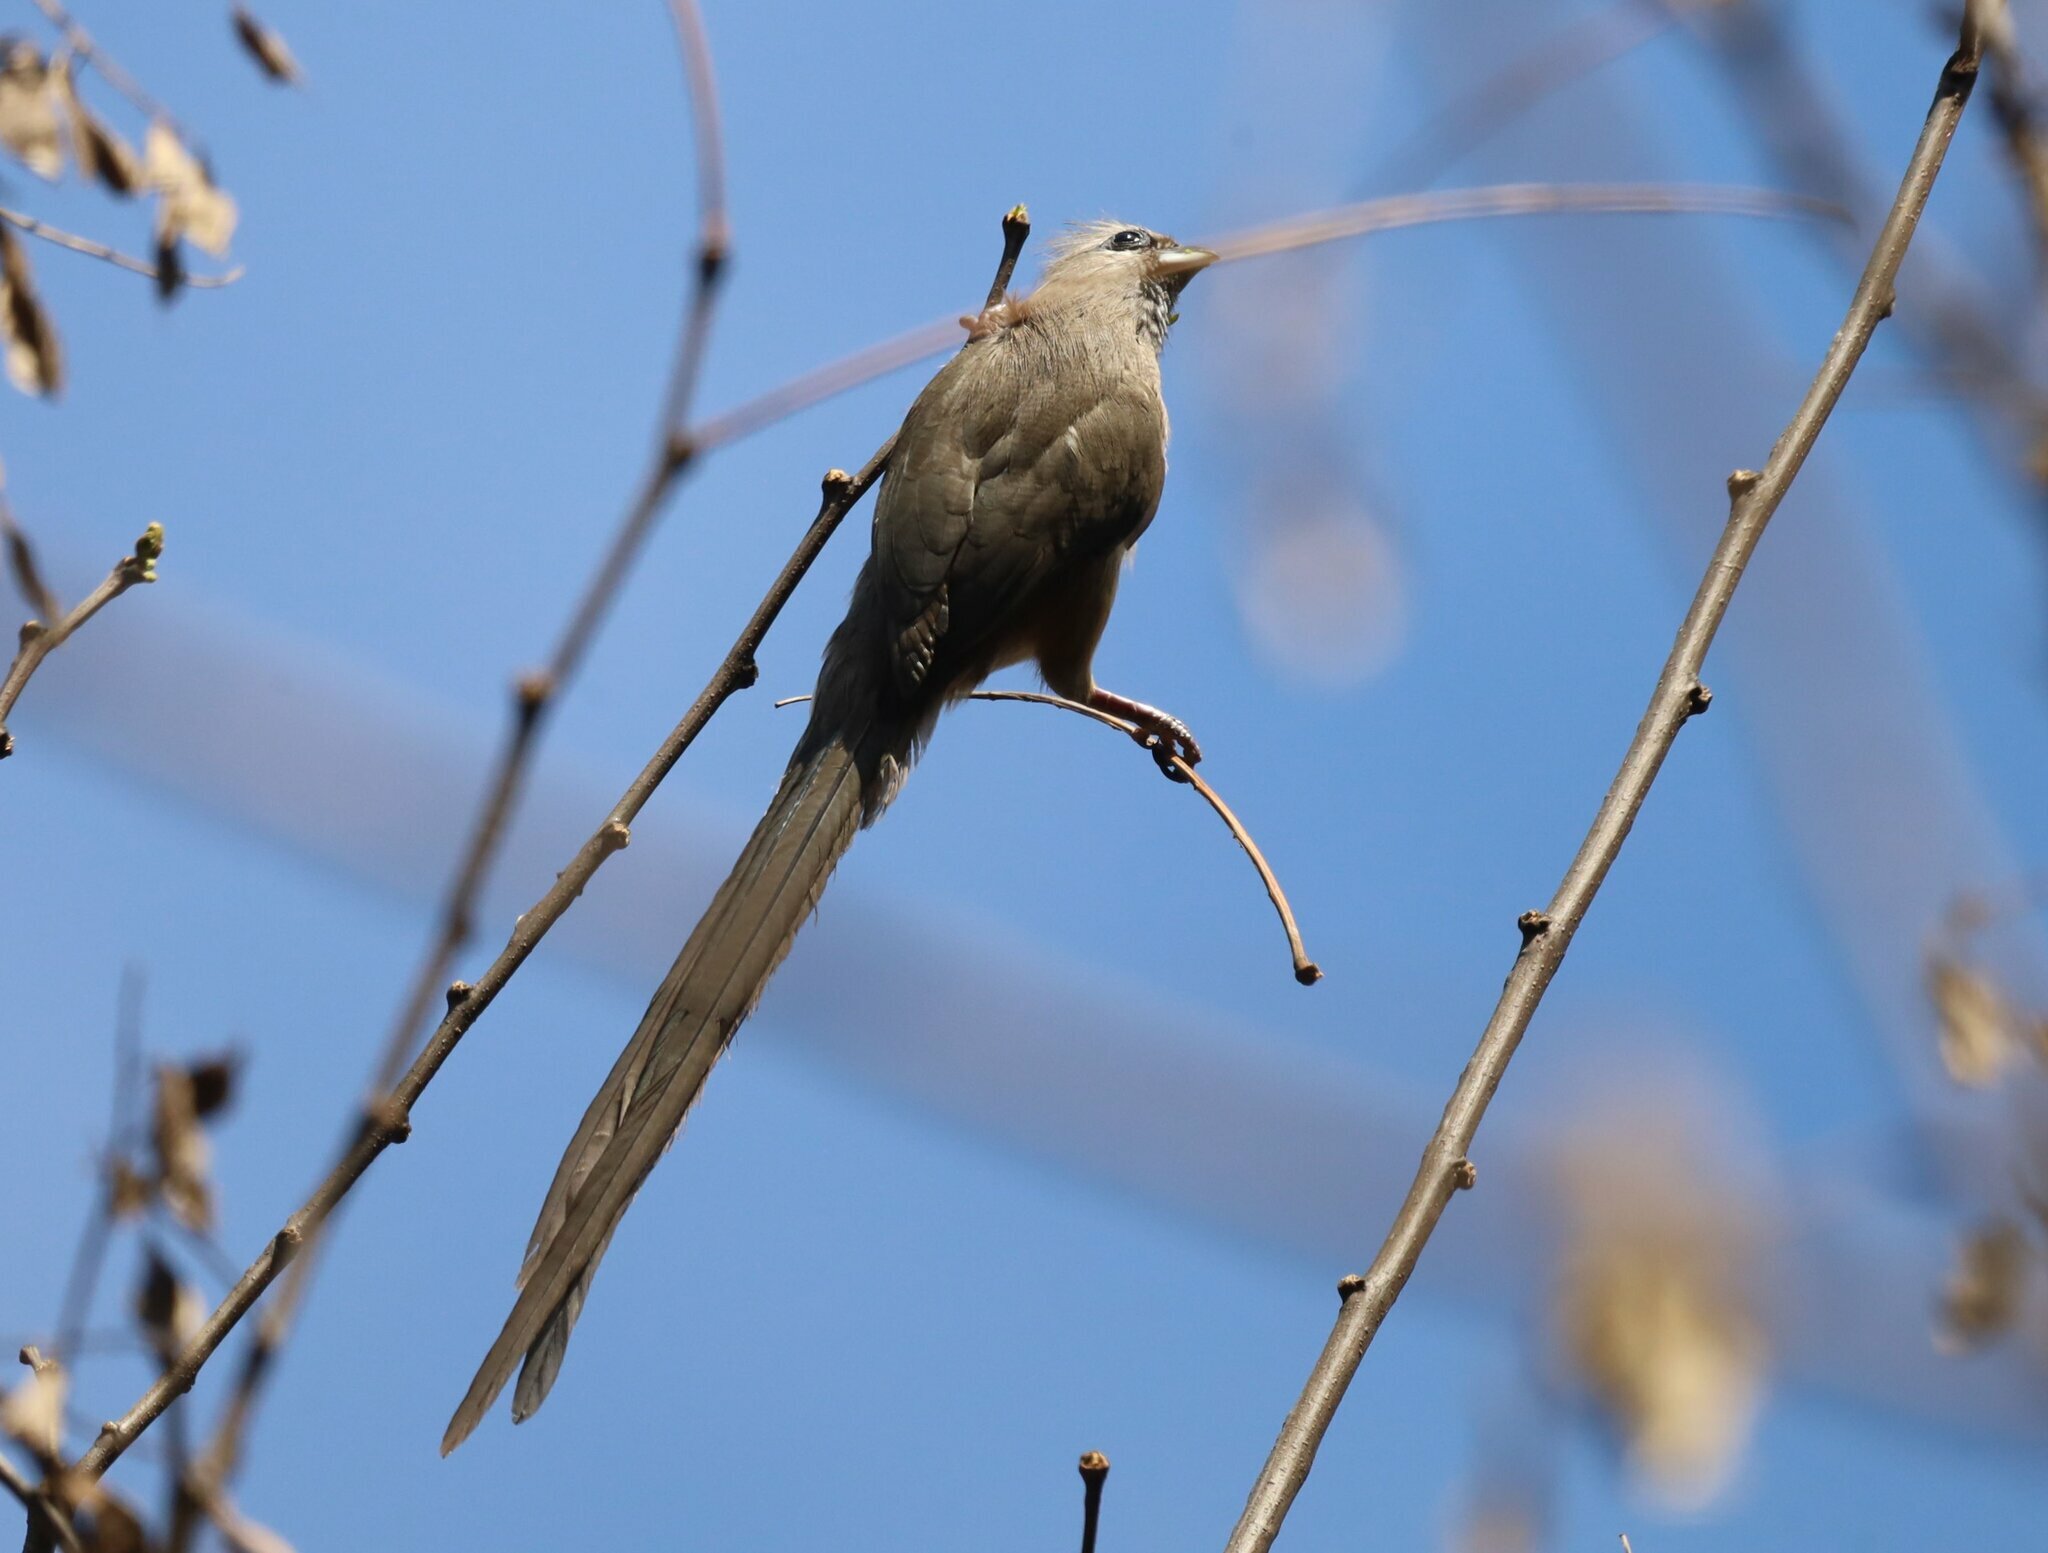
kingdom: Animalia
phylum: Chordata
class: Aves
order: Coliiformes
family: Coliidae
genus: Colius
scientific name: Colius striatus
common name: Speckled mousebird
